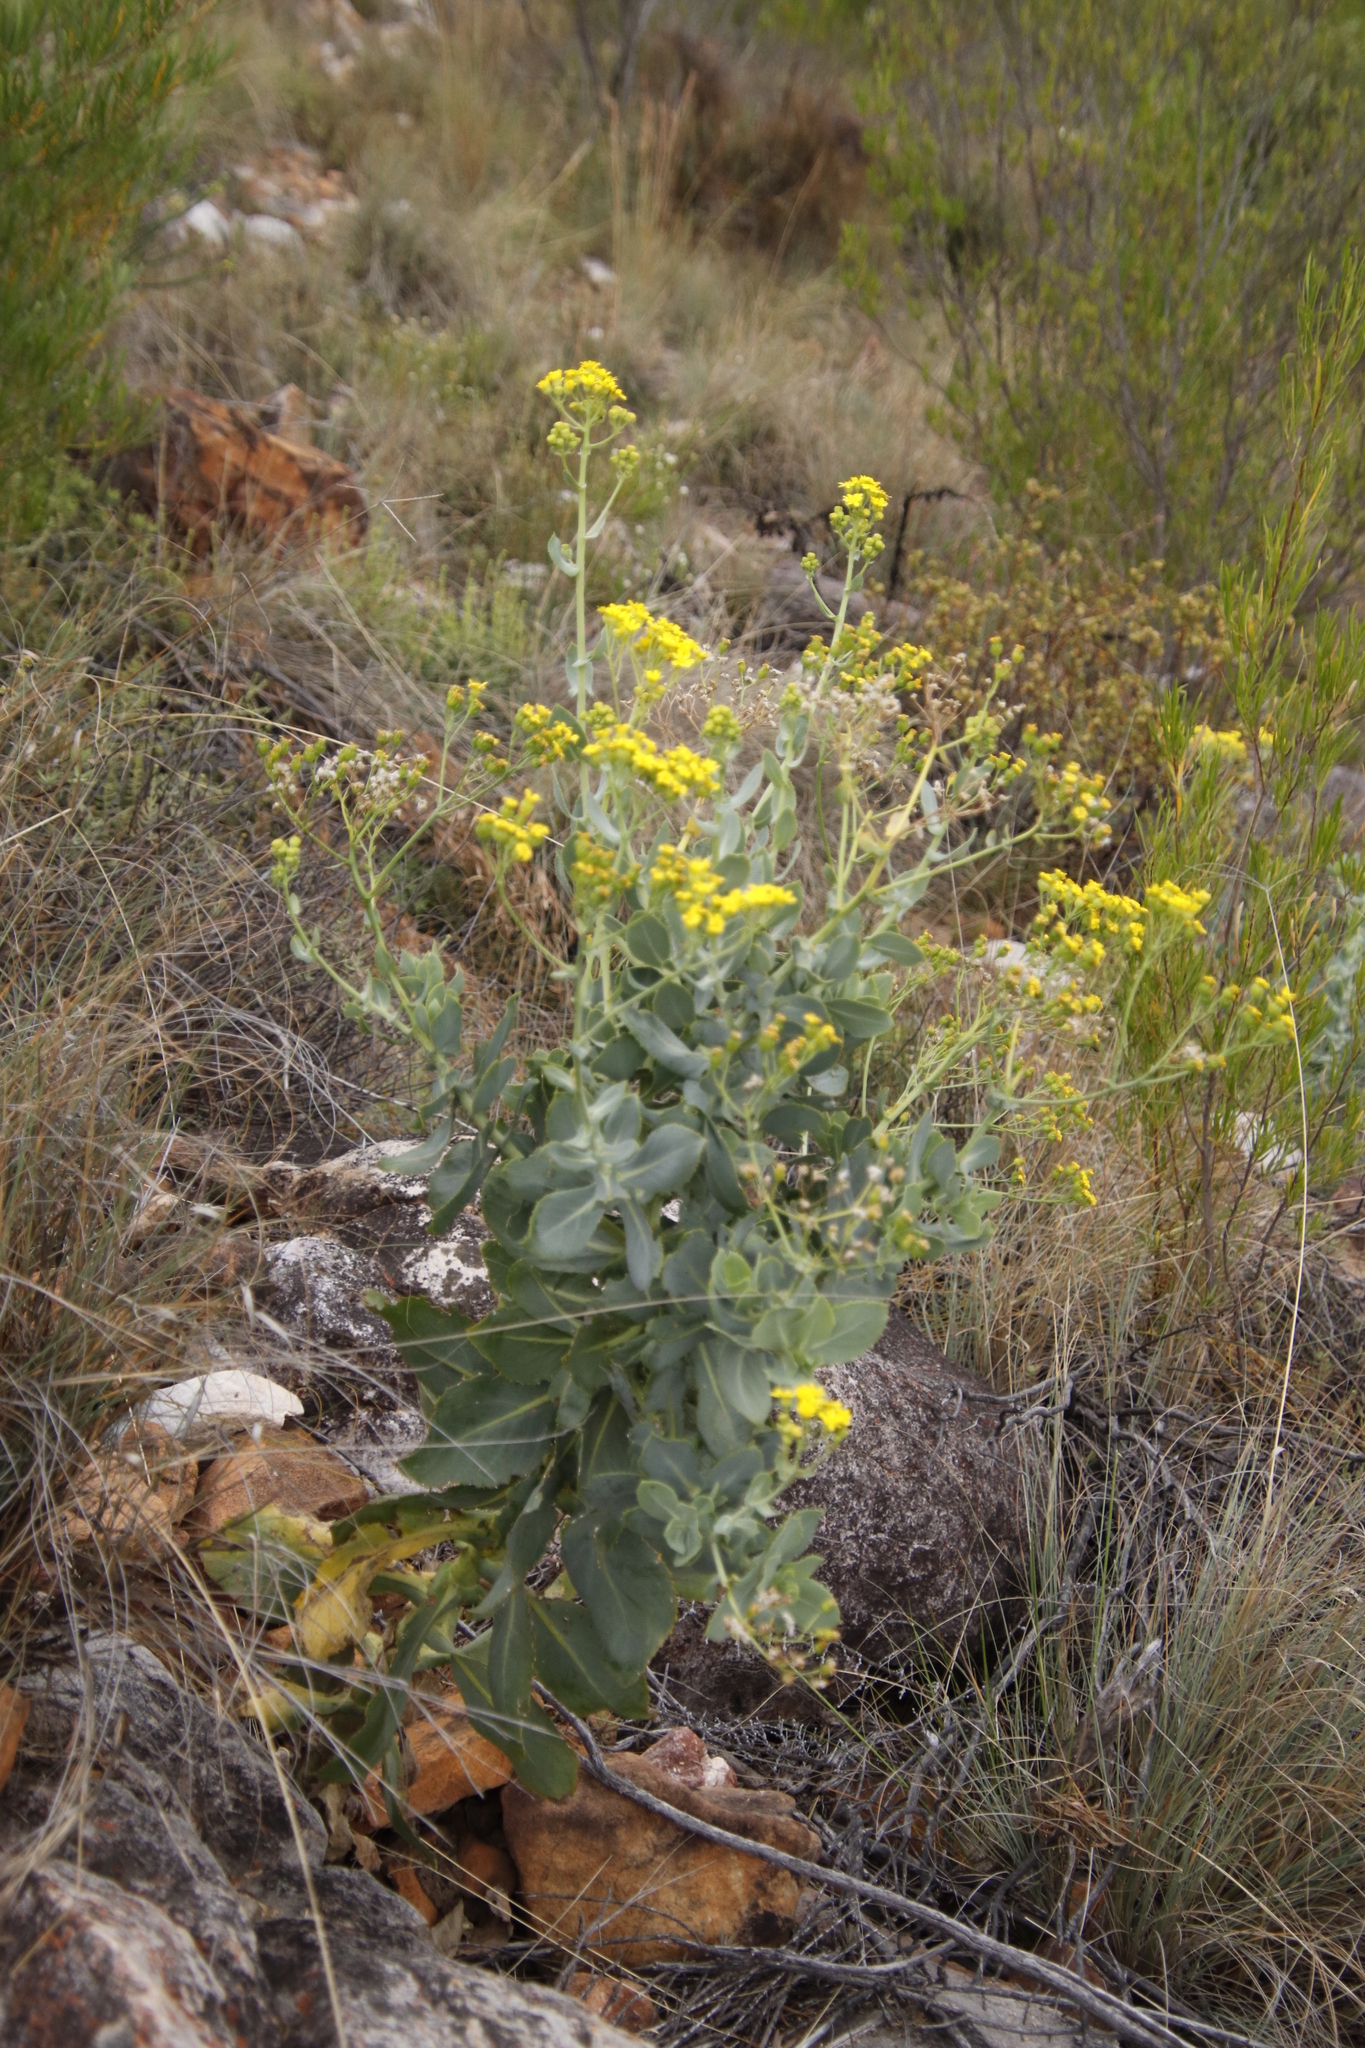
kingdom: Plantae
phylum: Tracheophyta
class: Magnoliopsida
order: Asterales
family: Asteraceae
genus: Othonna
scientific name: Othonna parviflora
